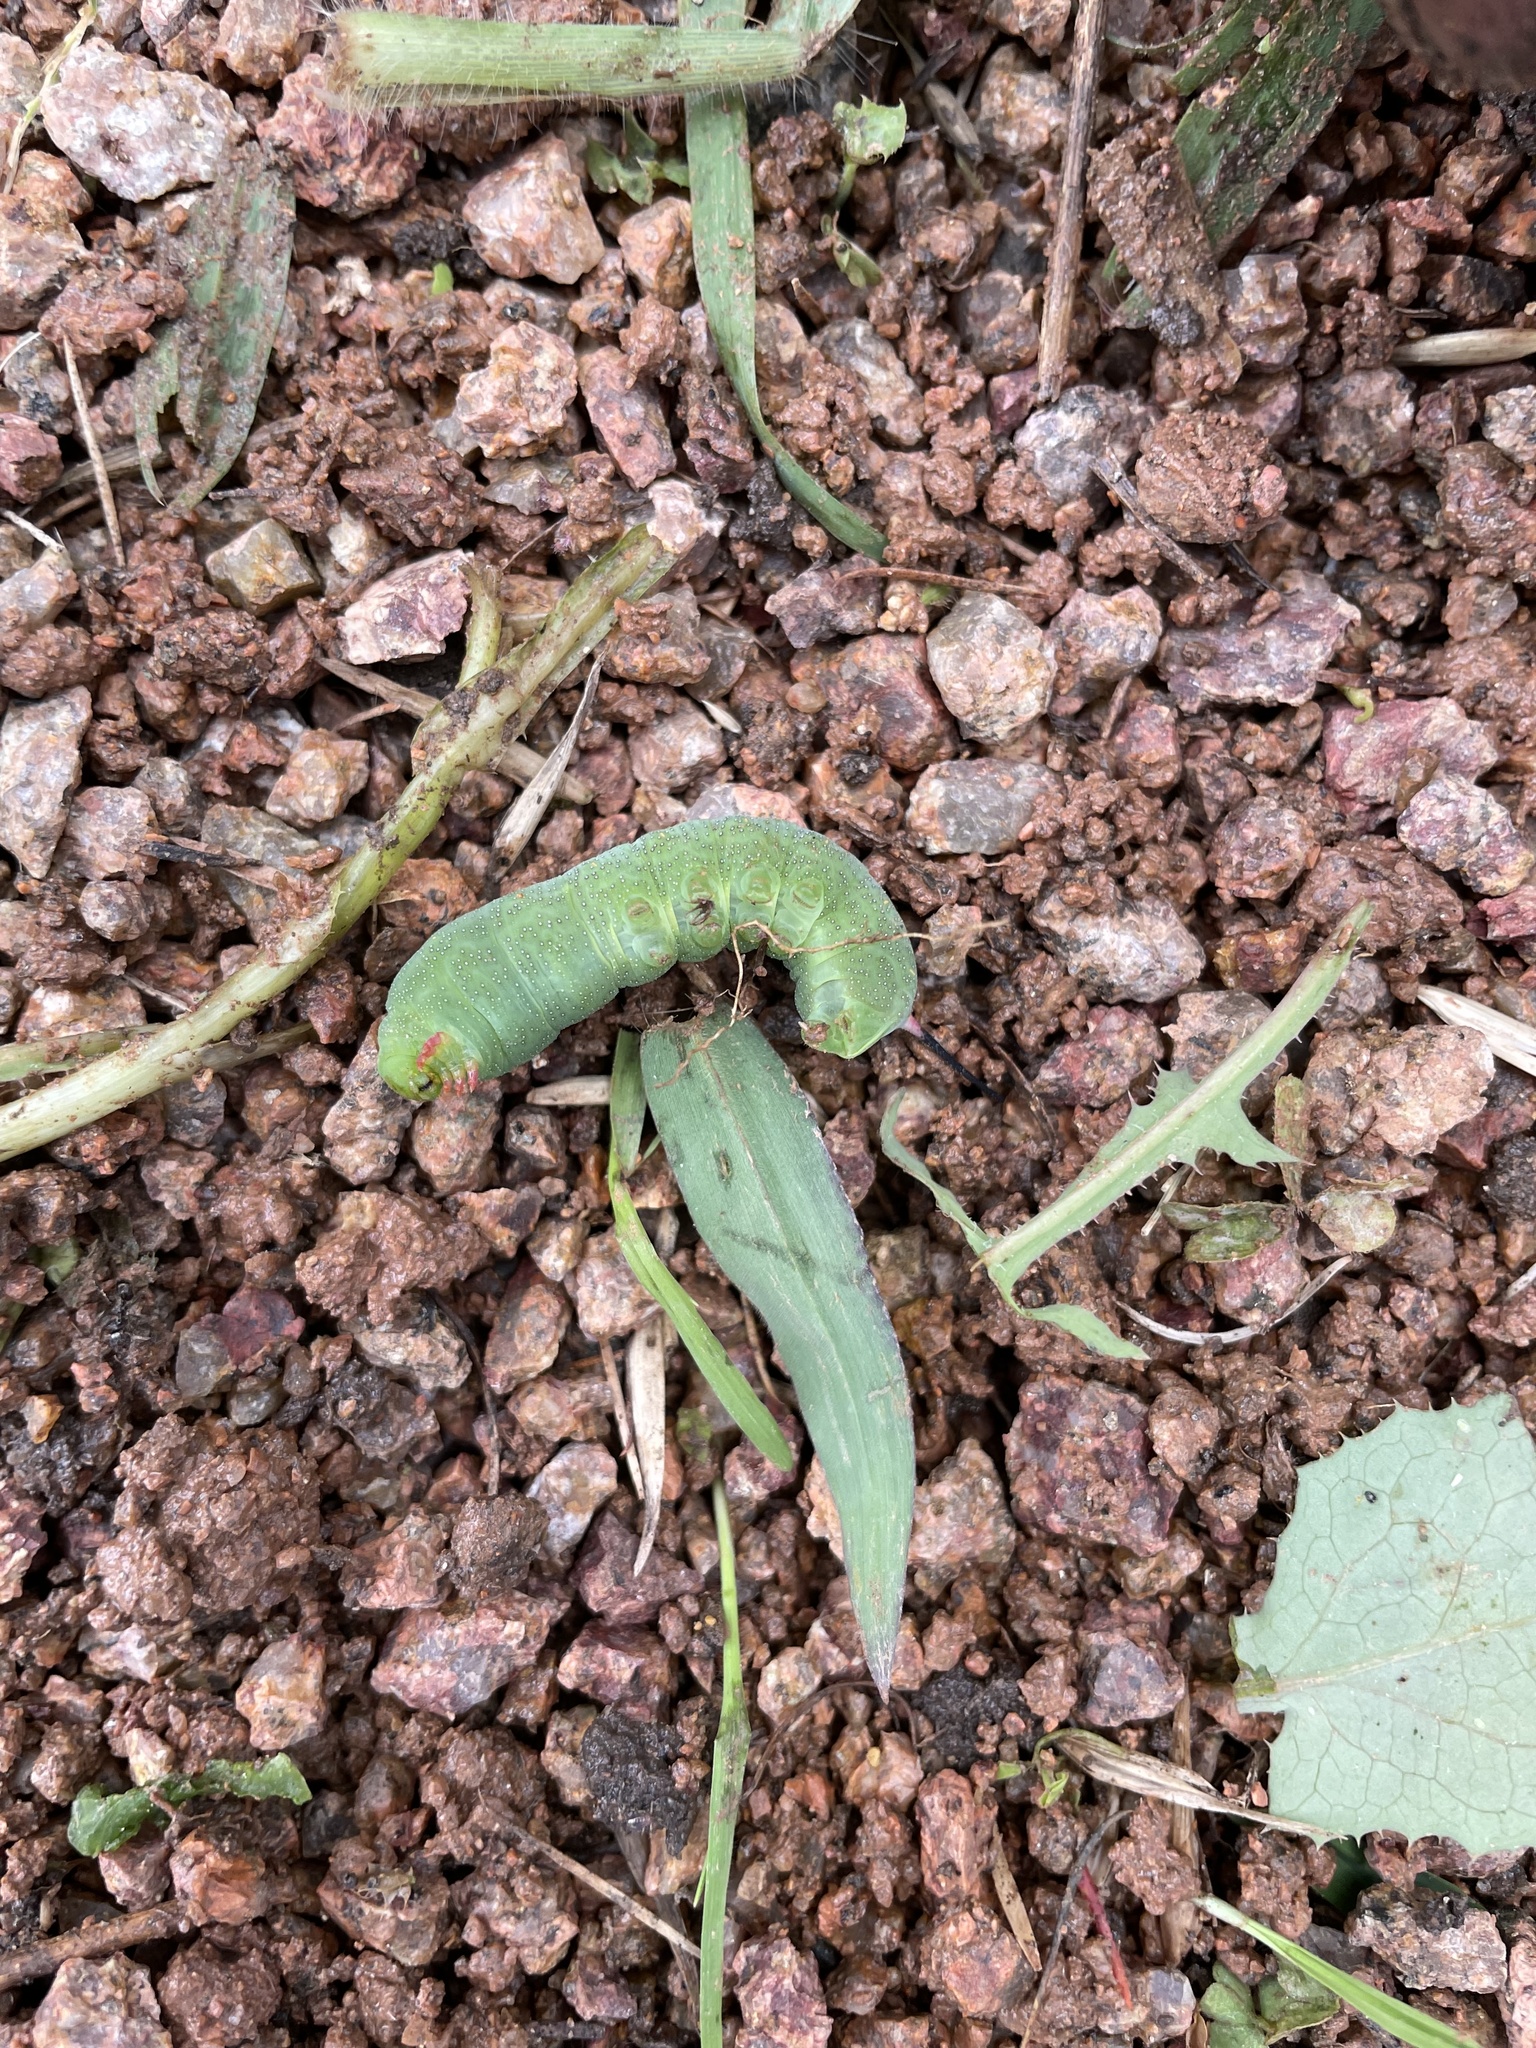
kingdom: Animalia
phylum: Arthropoda
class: Insecta
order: Lepidoptera
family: Sphingidae
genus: Hippotion
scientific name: Hippotion celerio
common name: Silver-striped hawk-moth
